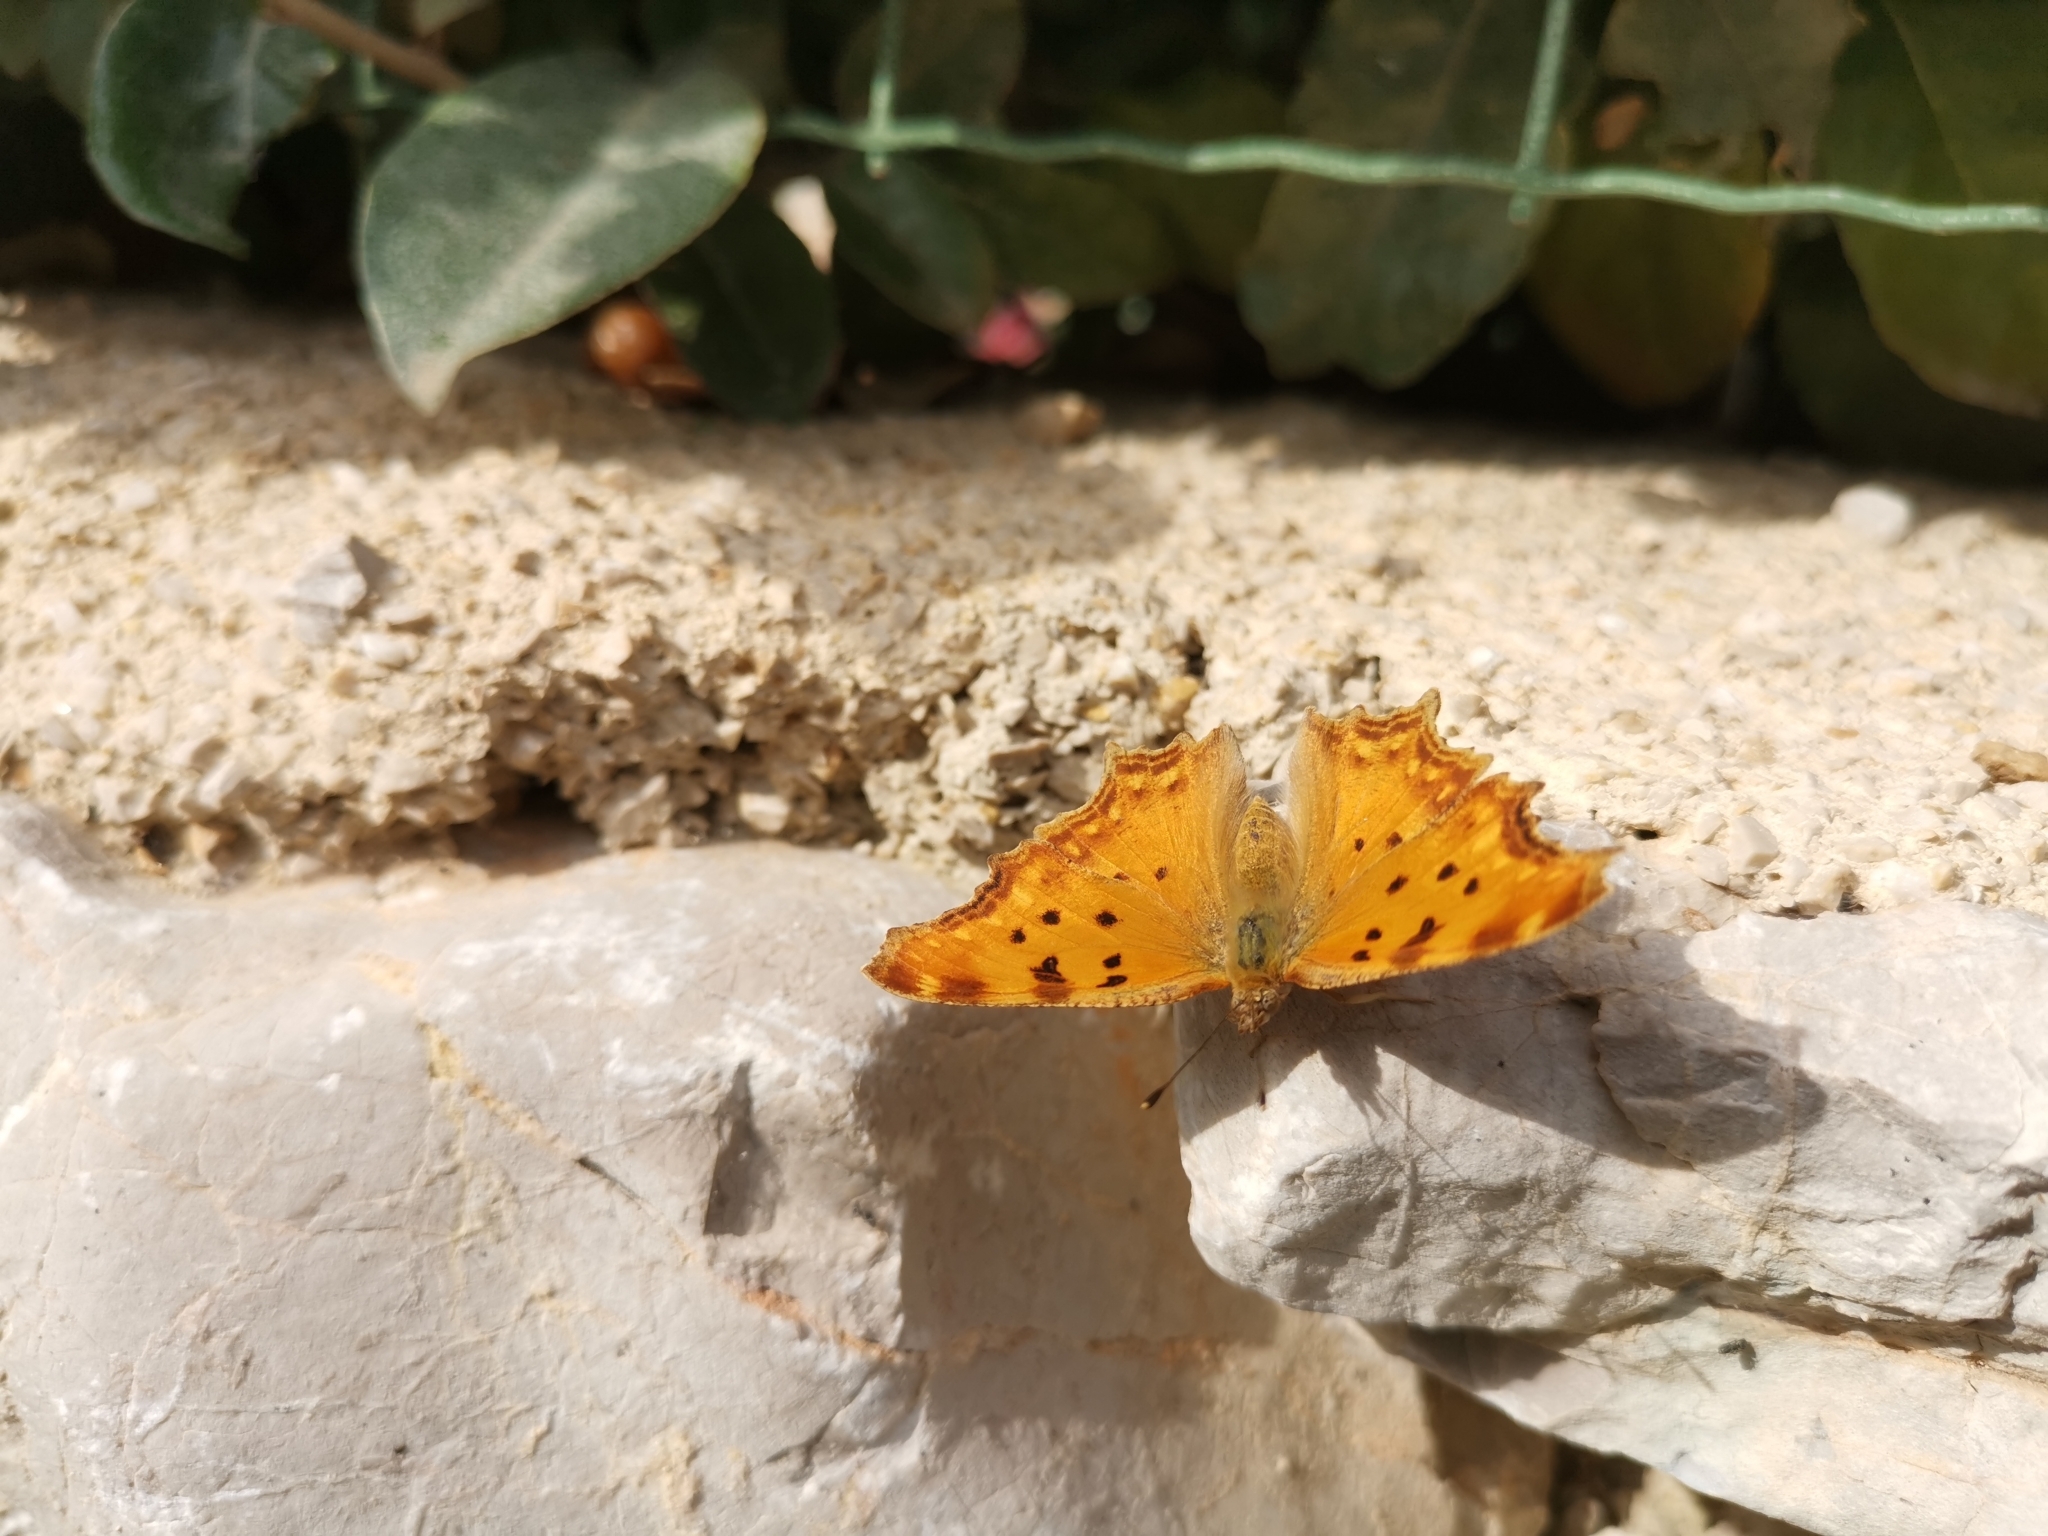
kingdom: Animalia
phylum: Arthropoda
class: Insecta
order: Lepidoptera
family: Nymphalidae
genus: Polygonia
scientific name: Polygonia egea
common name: Southern comma
